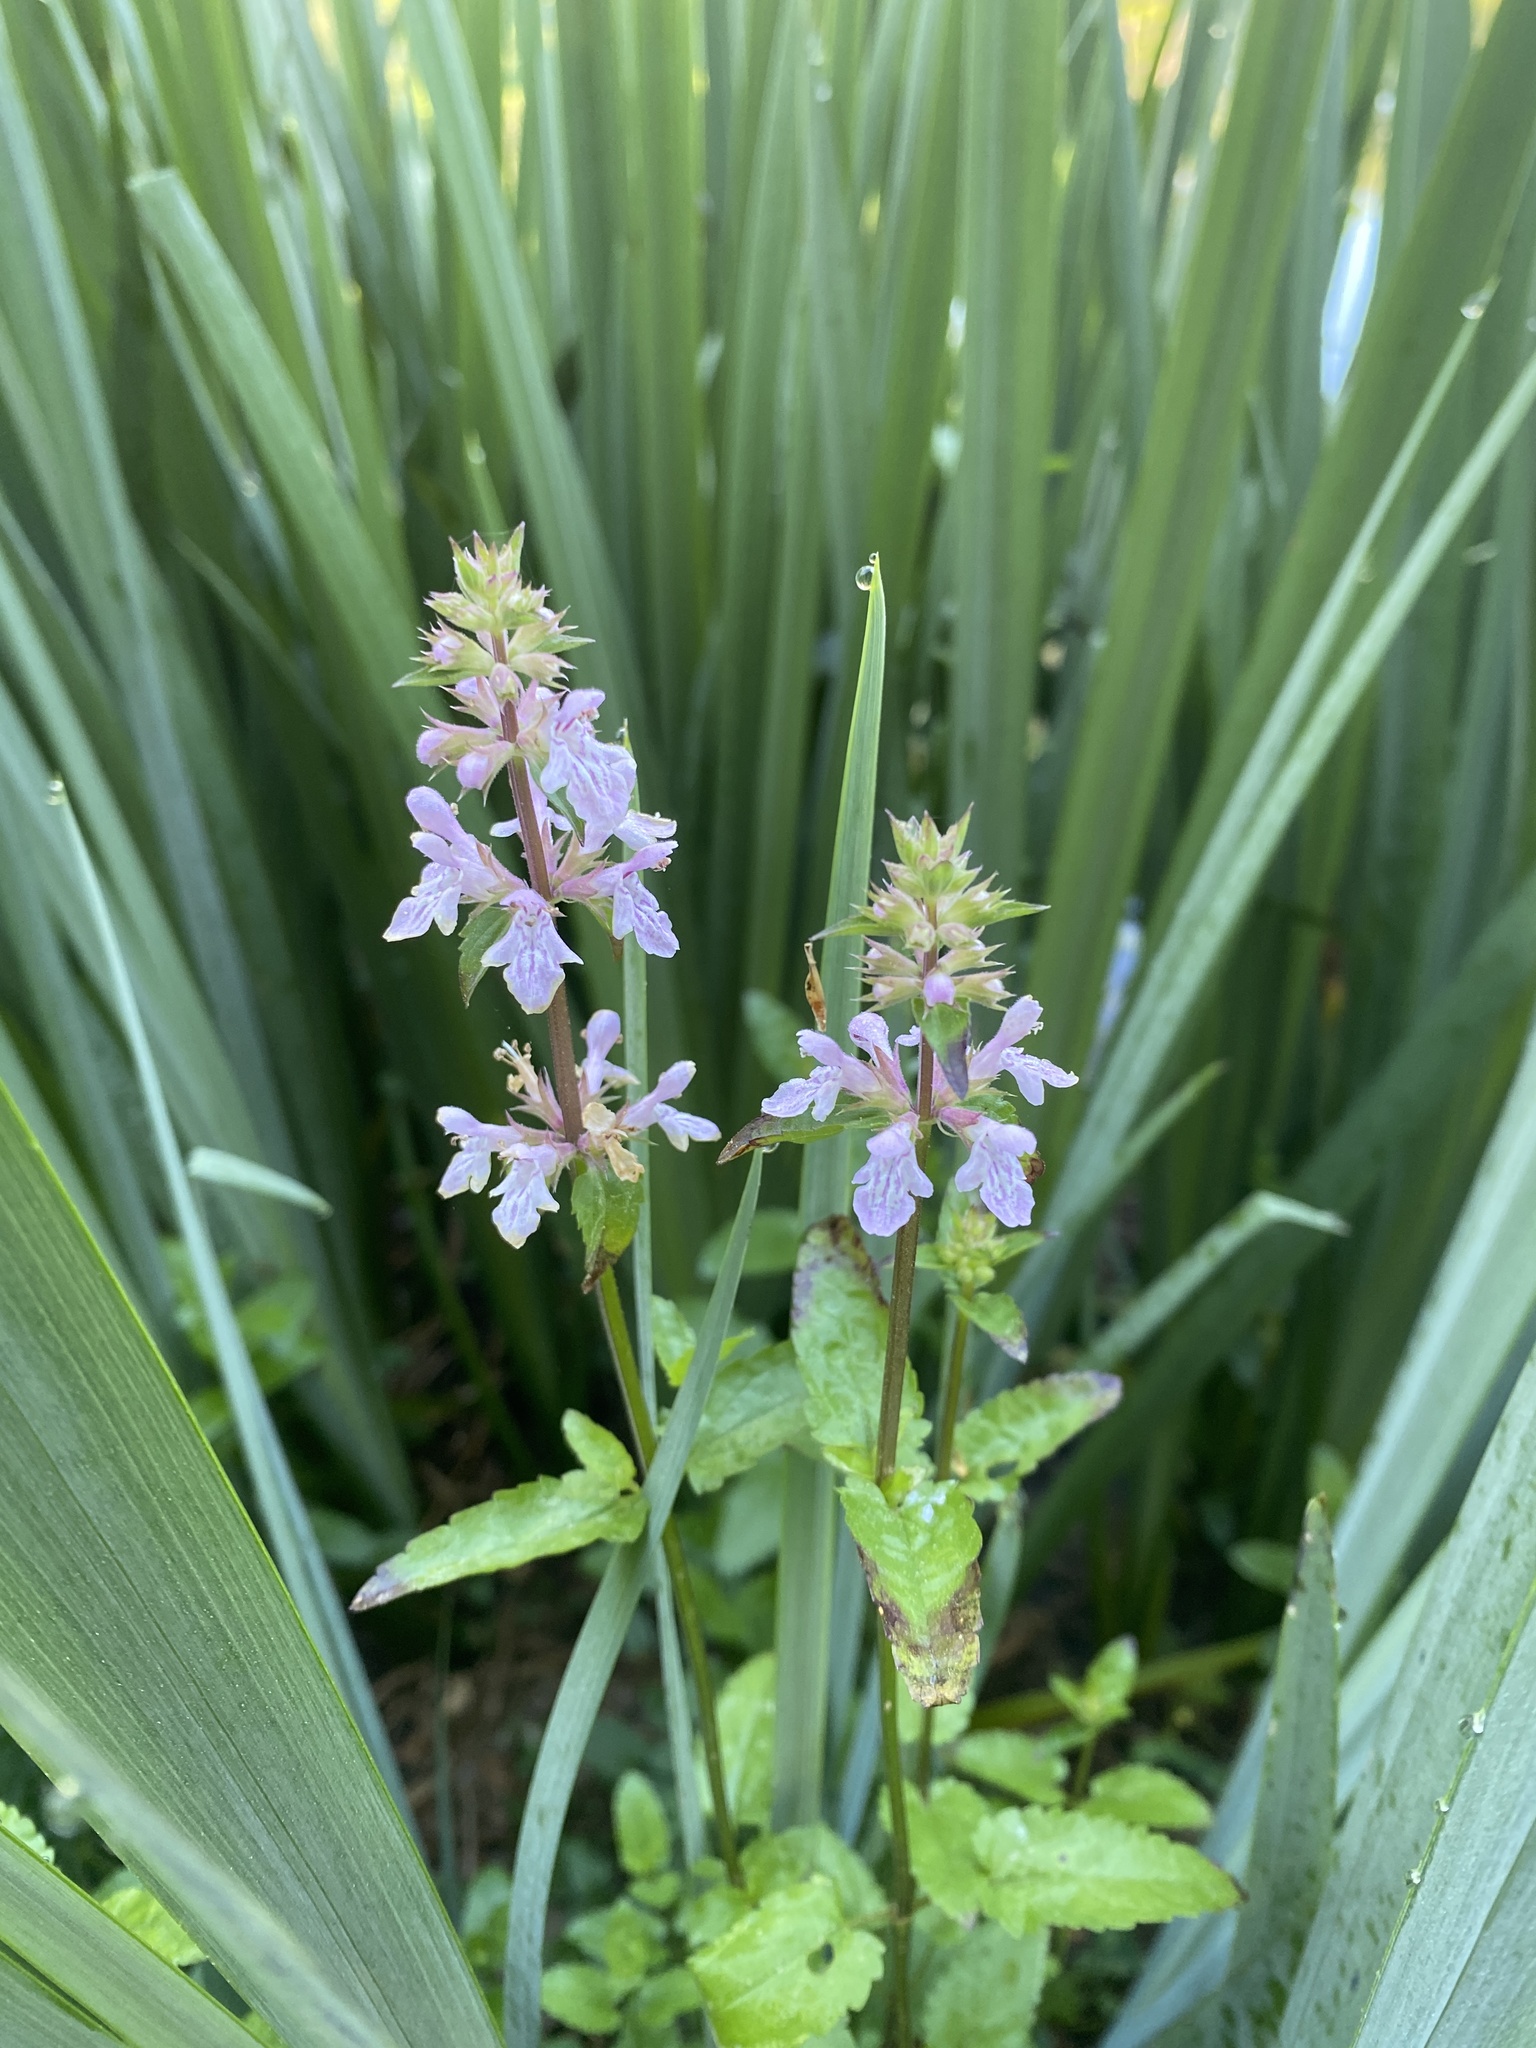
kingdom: Plantae
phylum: Tracheophyta
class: Magnoliopsida
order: Lamiales
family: Lamiaceae
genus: Stachys
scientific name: Stachys floridana
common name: Florida betony
